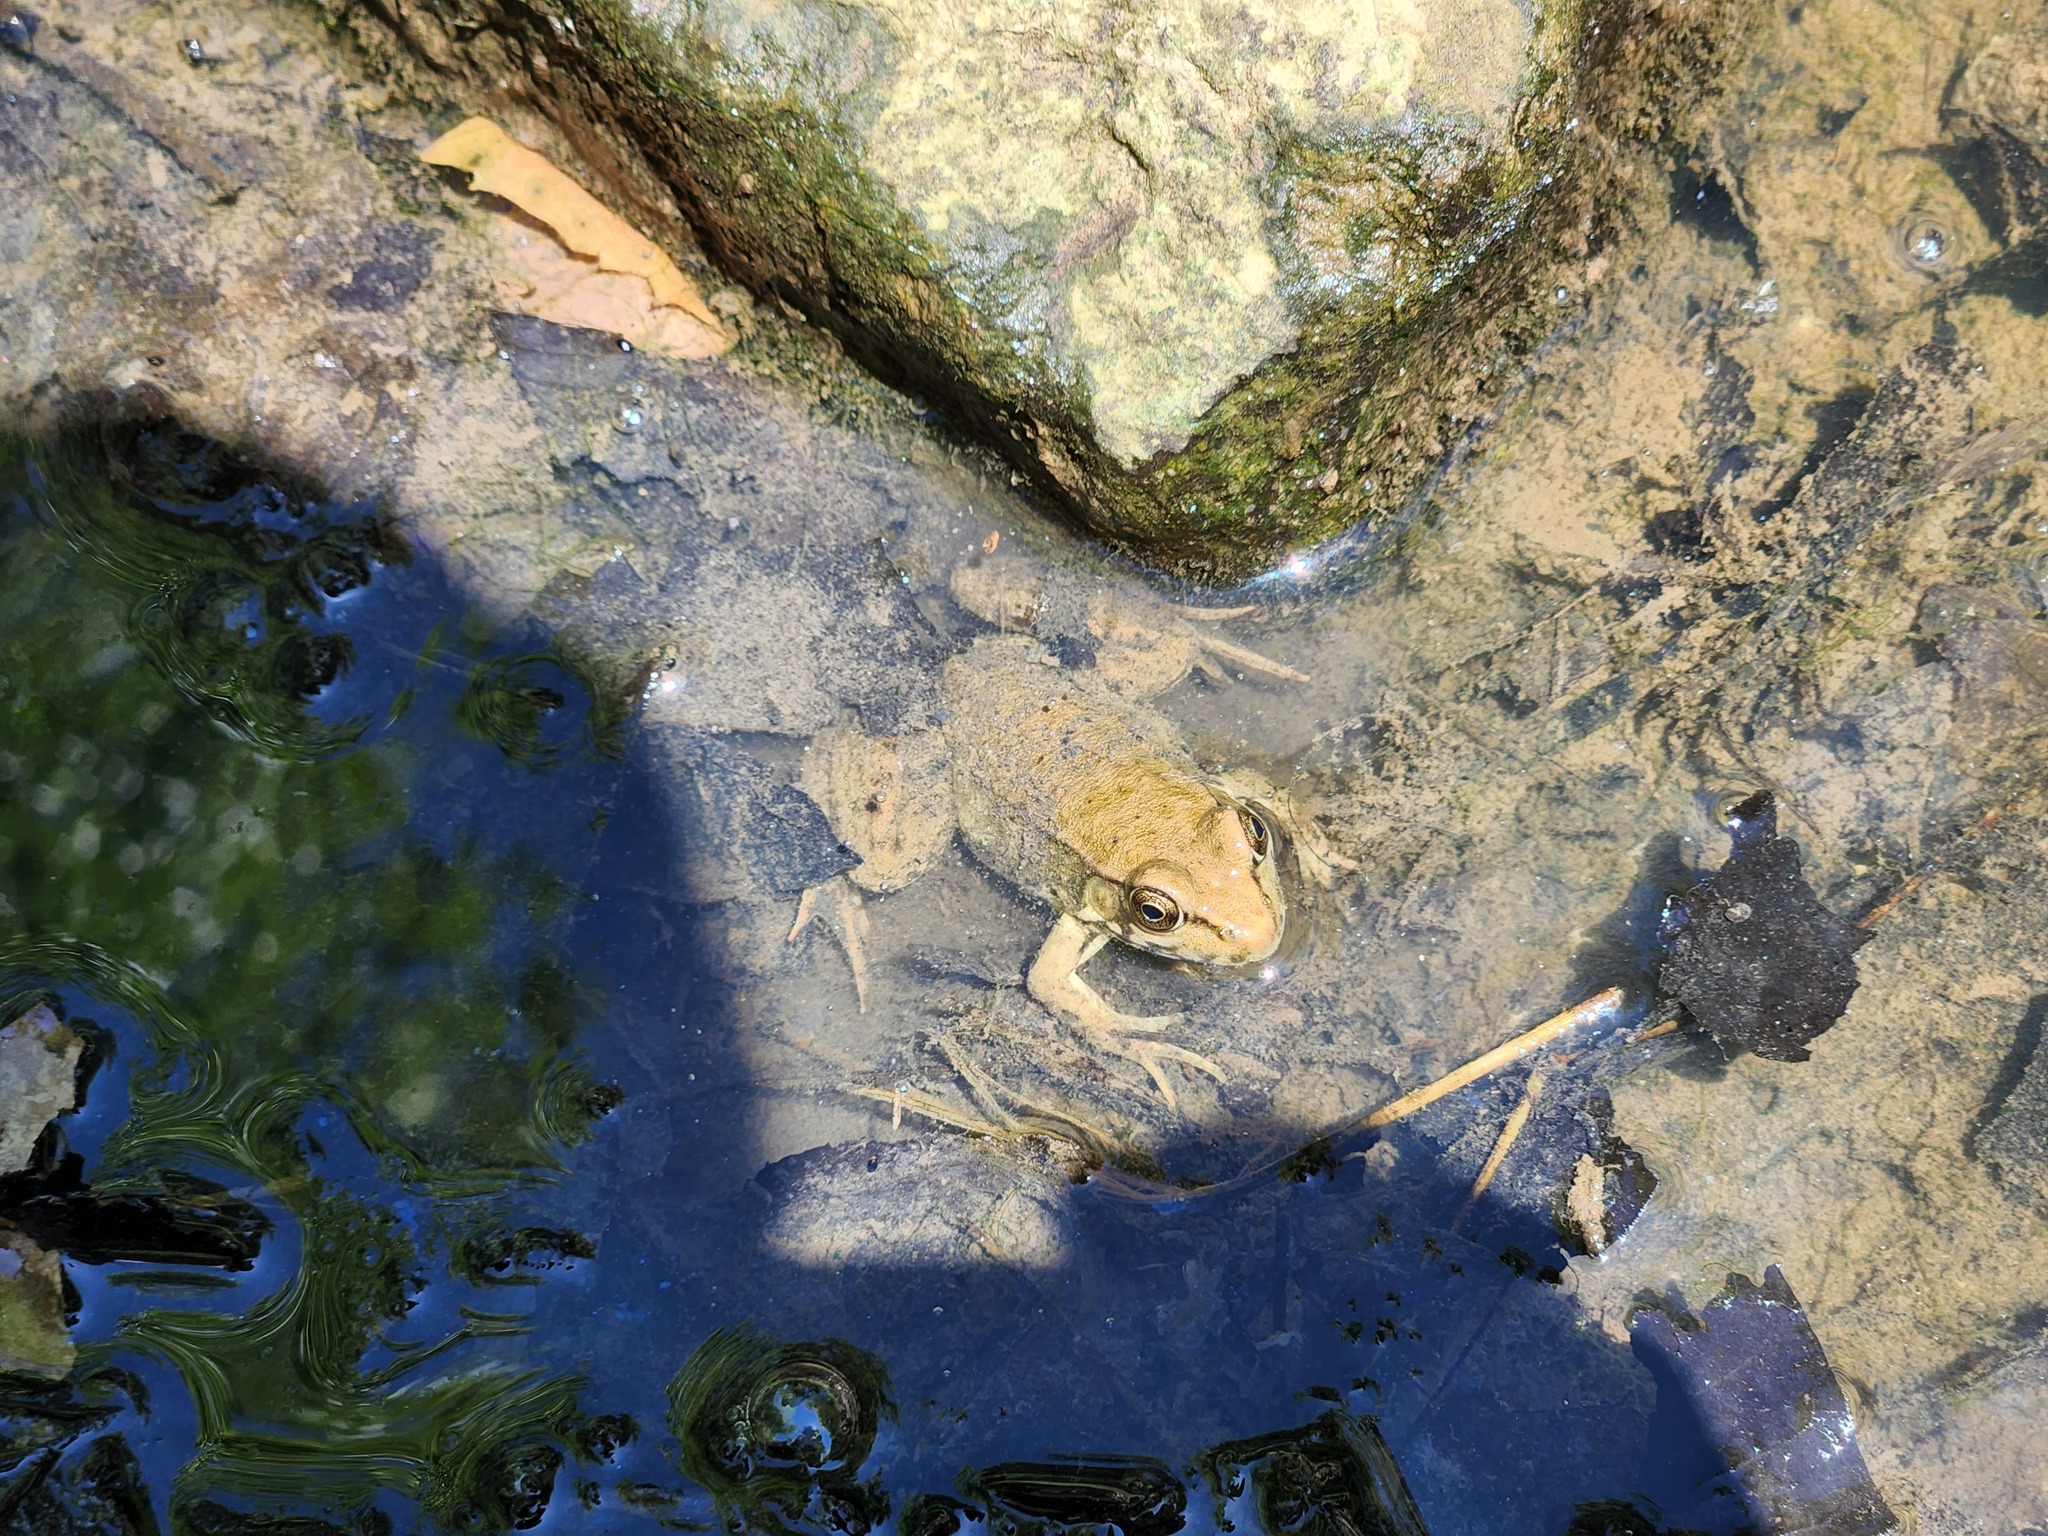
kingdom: Animalia
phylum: Chordata
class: Amphibia
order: Anura
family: Ranidae
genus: Lithobates
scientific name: Lithobates clamitans
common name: Green frog
